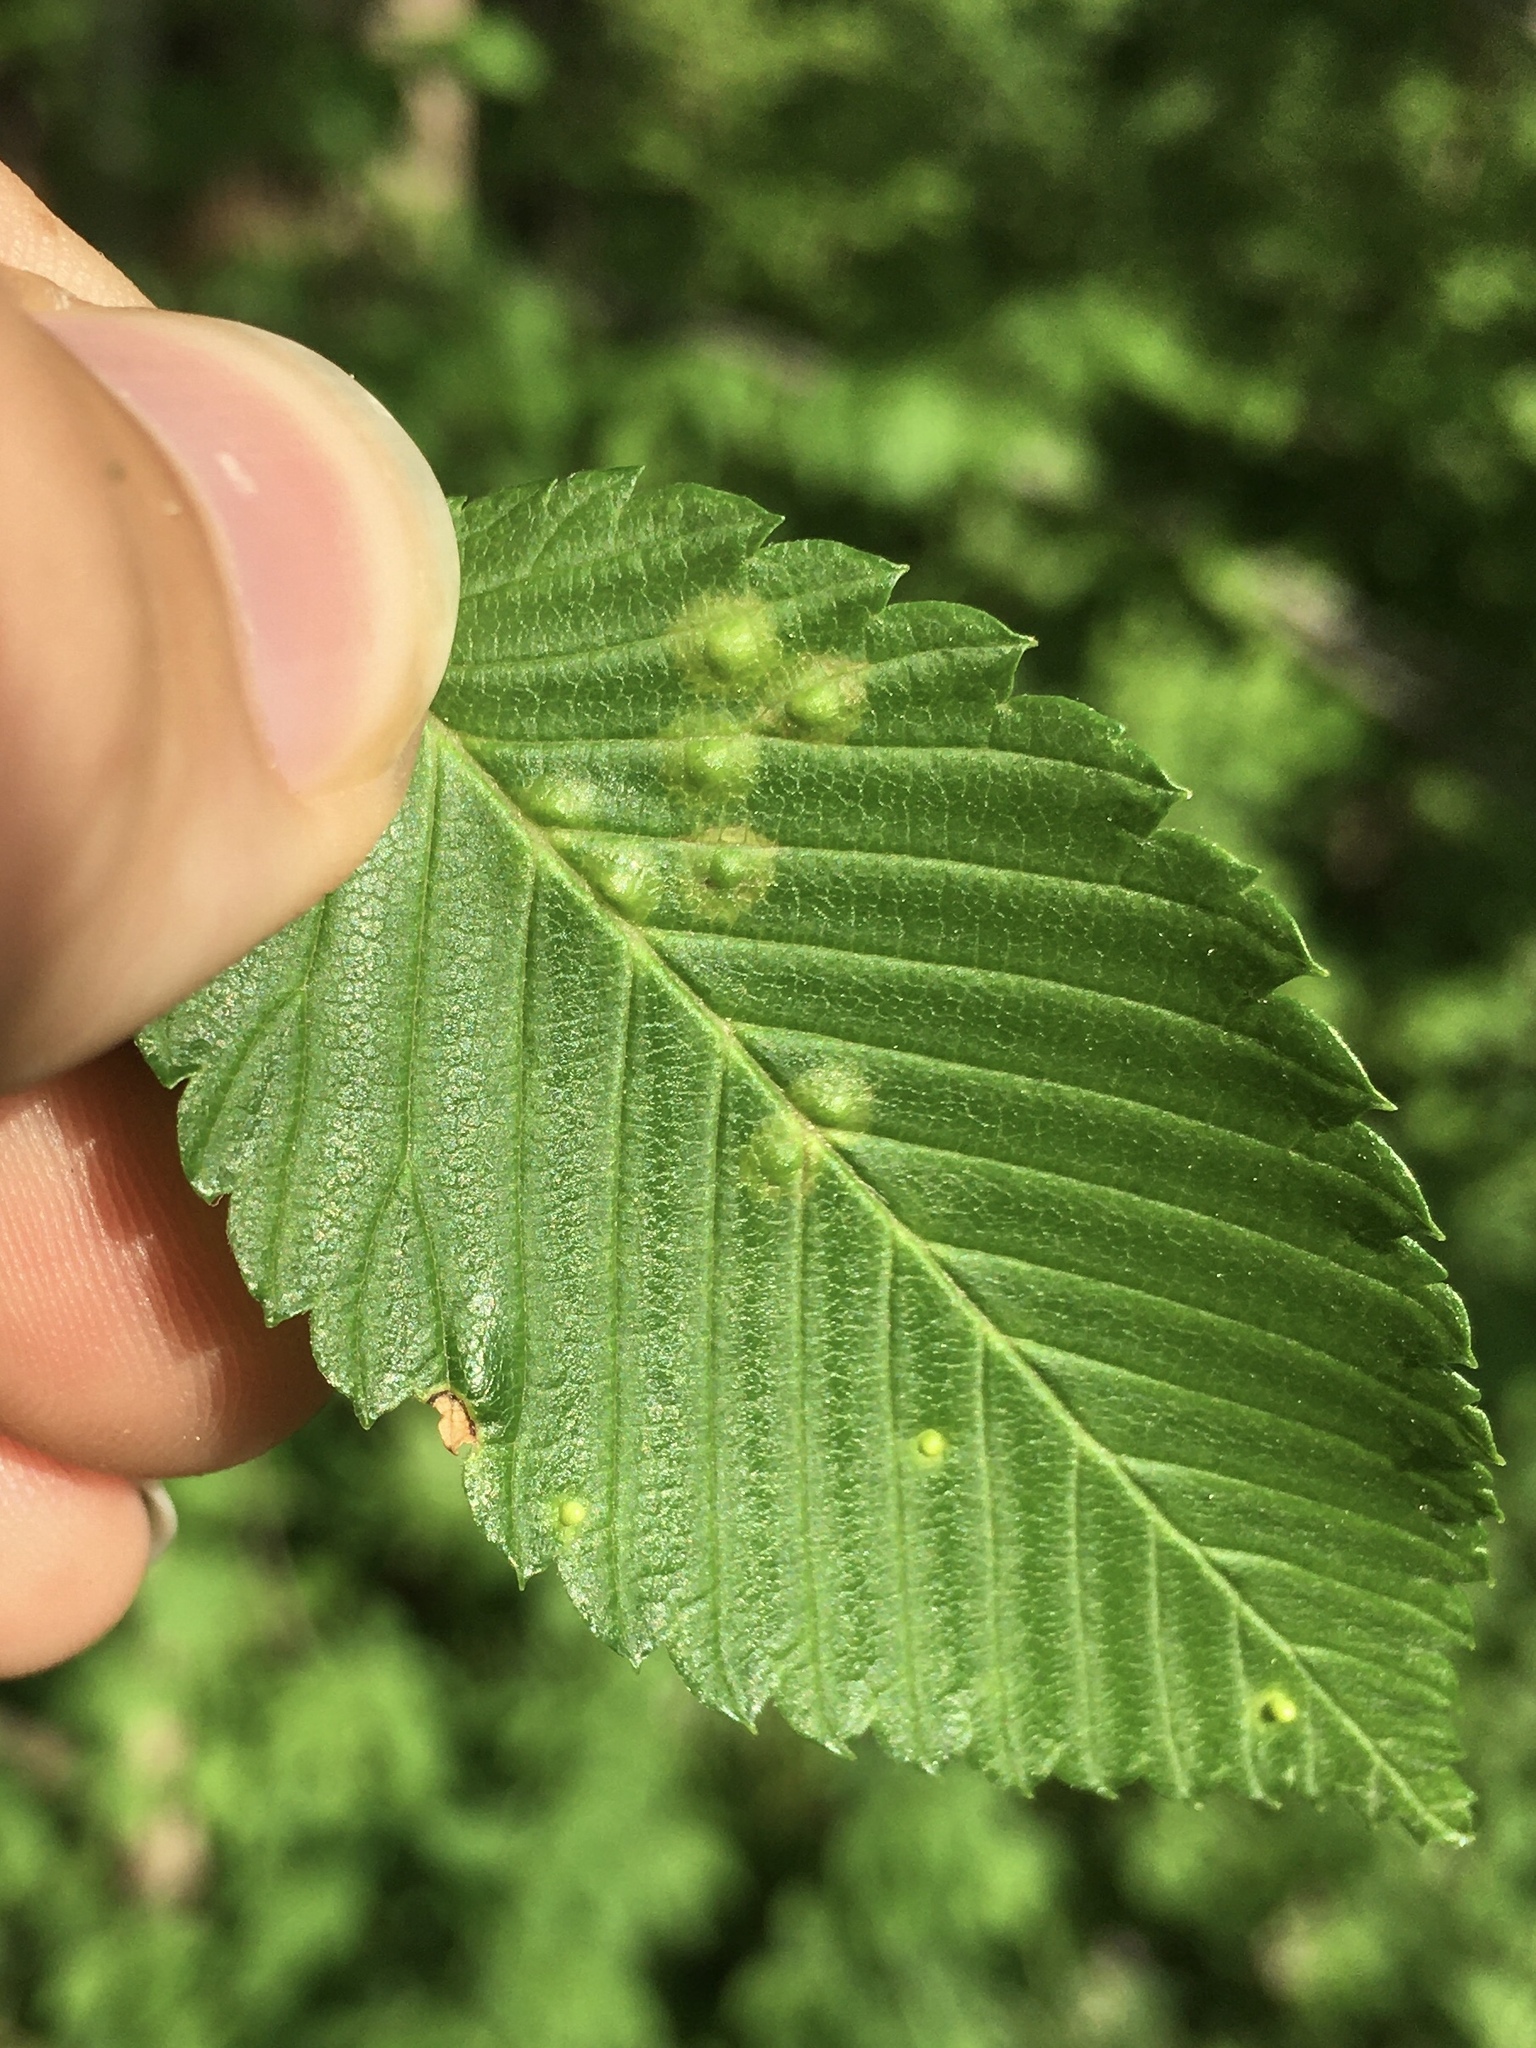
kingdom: Animalia
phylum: Arthropoda
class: Arachnida
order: Trombidiformes
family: Eriophyidae
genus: Aceria
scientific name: Aceria
